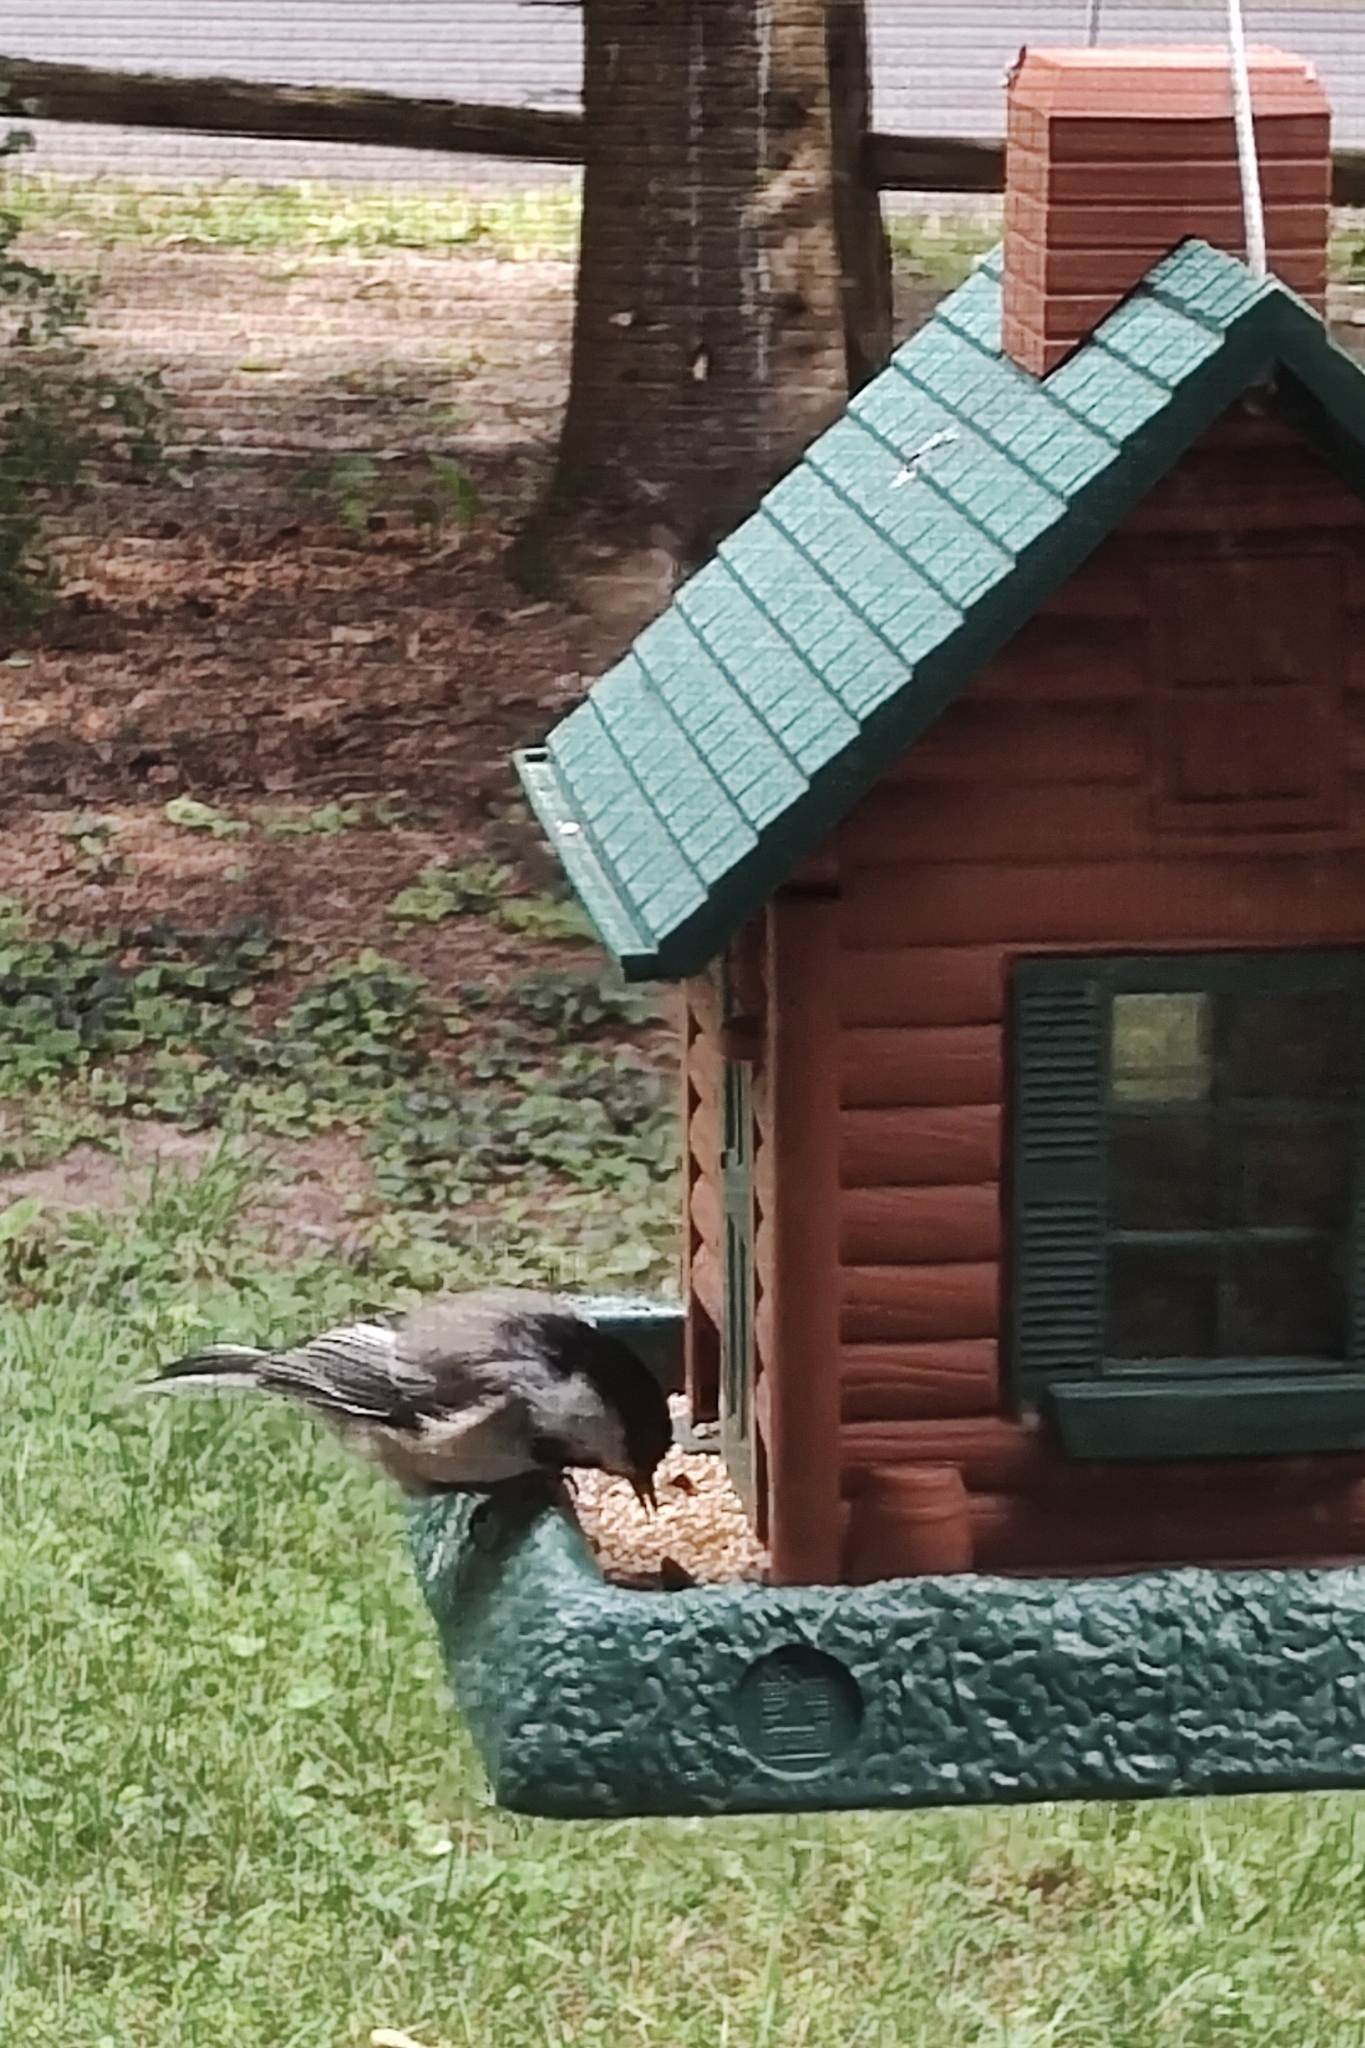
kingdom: Animalia
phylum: Chordata
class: Aves
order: Passeriformes
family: Paridae
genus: Poecile
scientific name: Poecile atricapillus
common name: Black-capped chickadee
